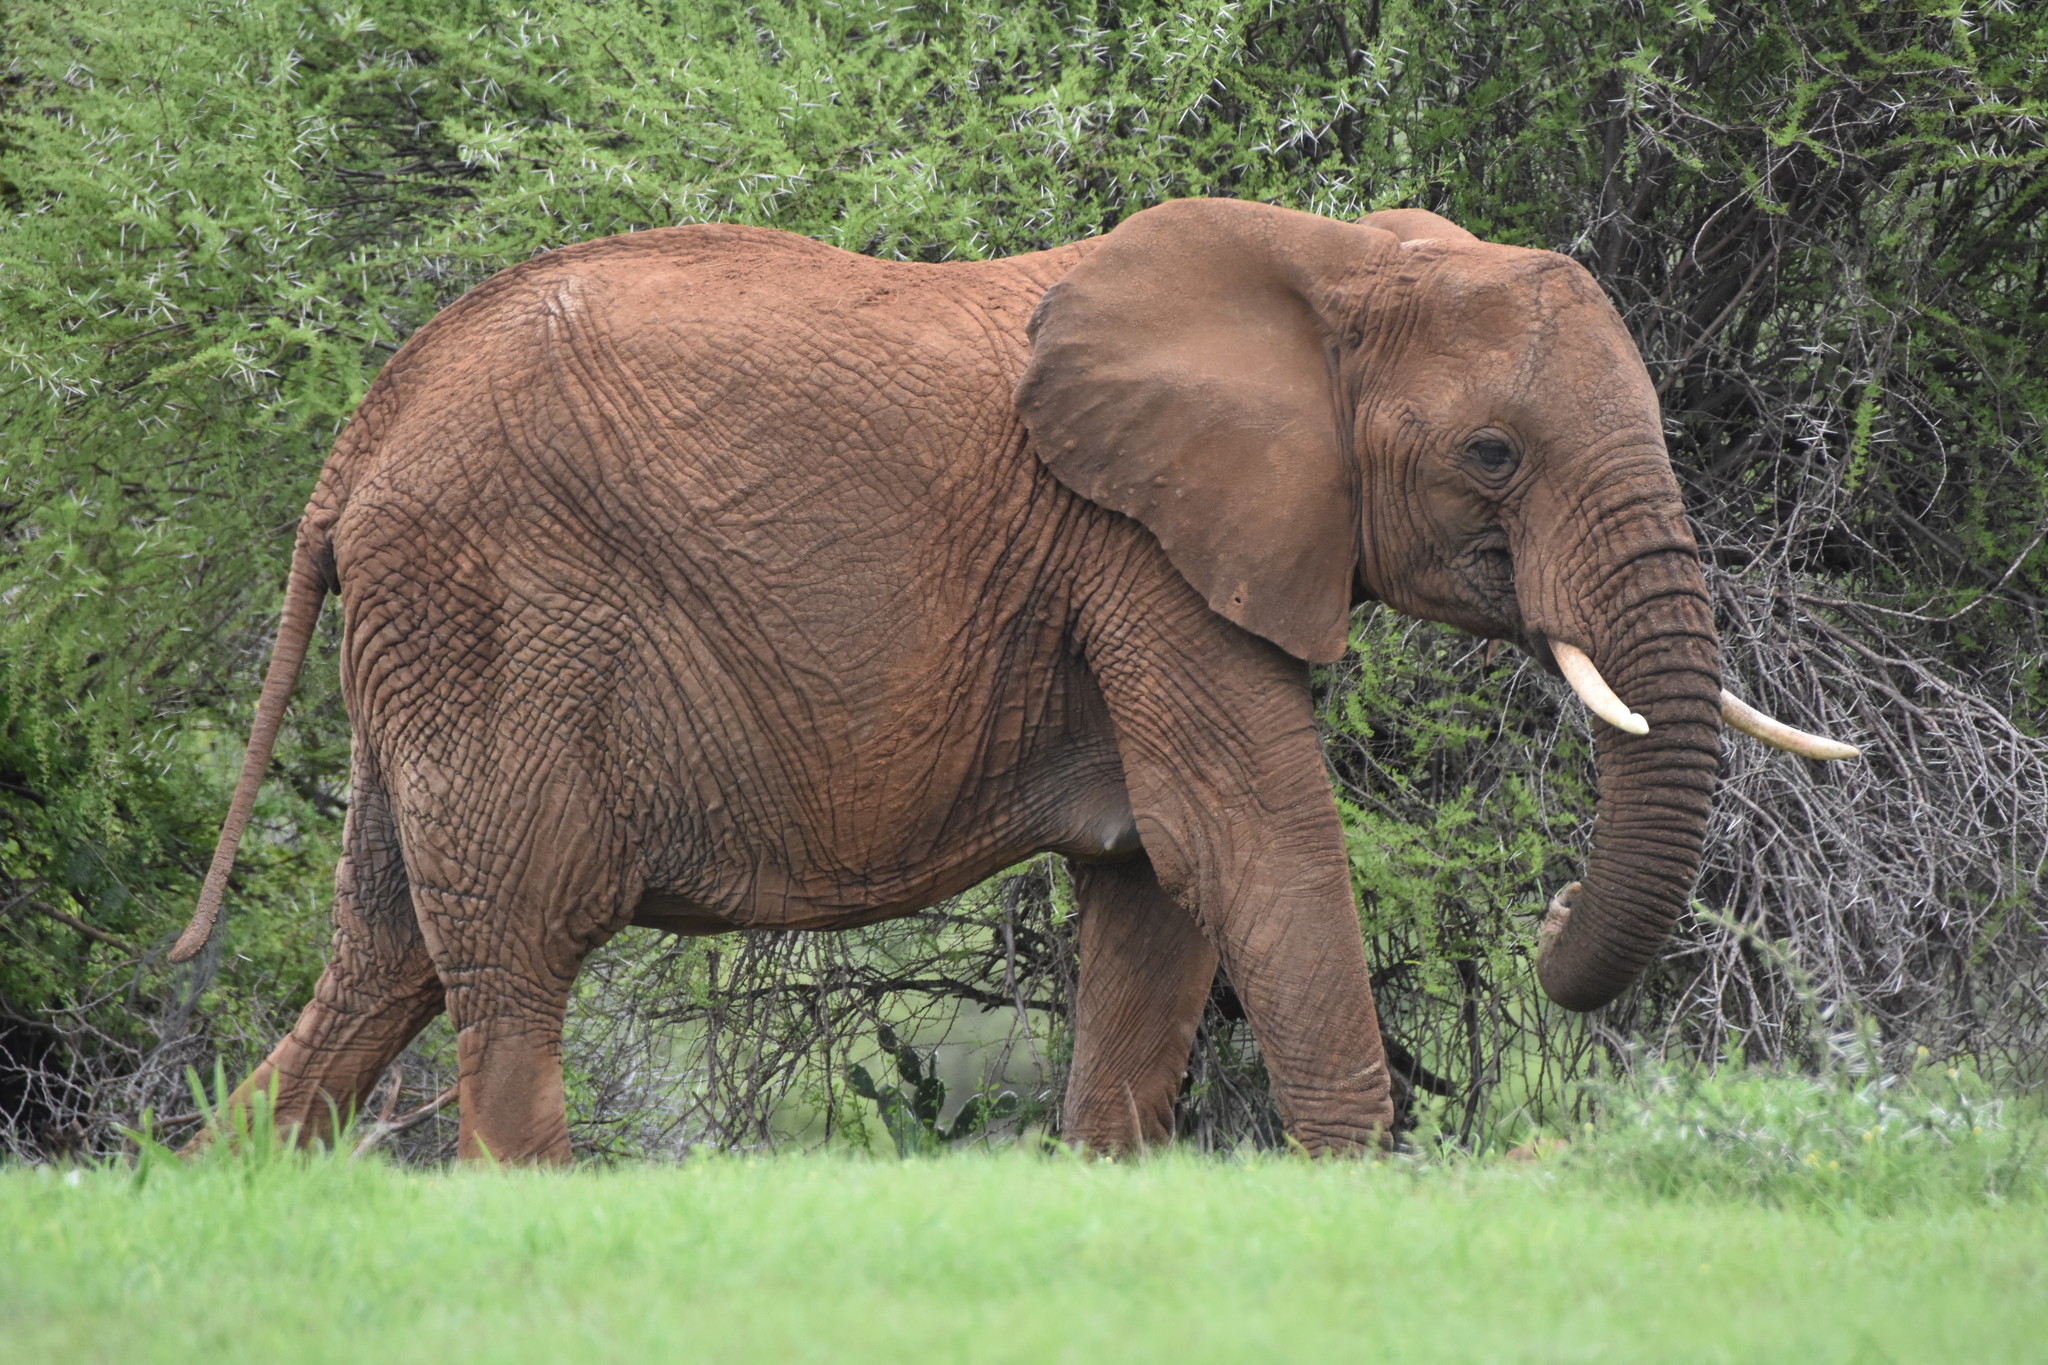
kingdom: Animalia
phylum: Chordata
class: Mammalia
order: Proboscidea
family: Elephantidae
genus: Loxodonta
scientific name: Loxodonta africana
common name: African elephant
